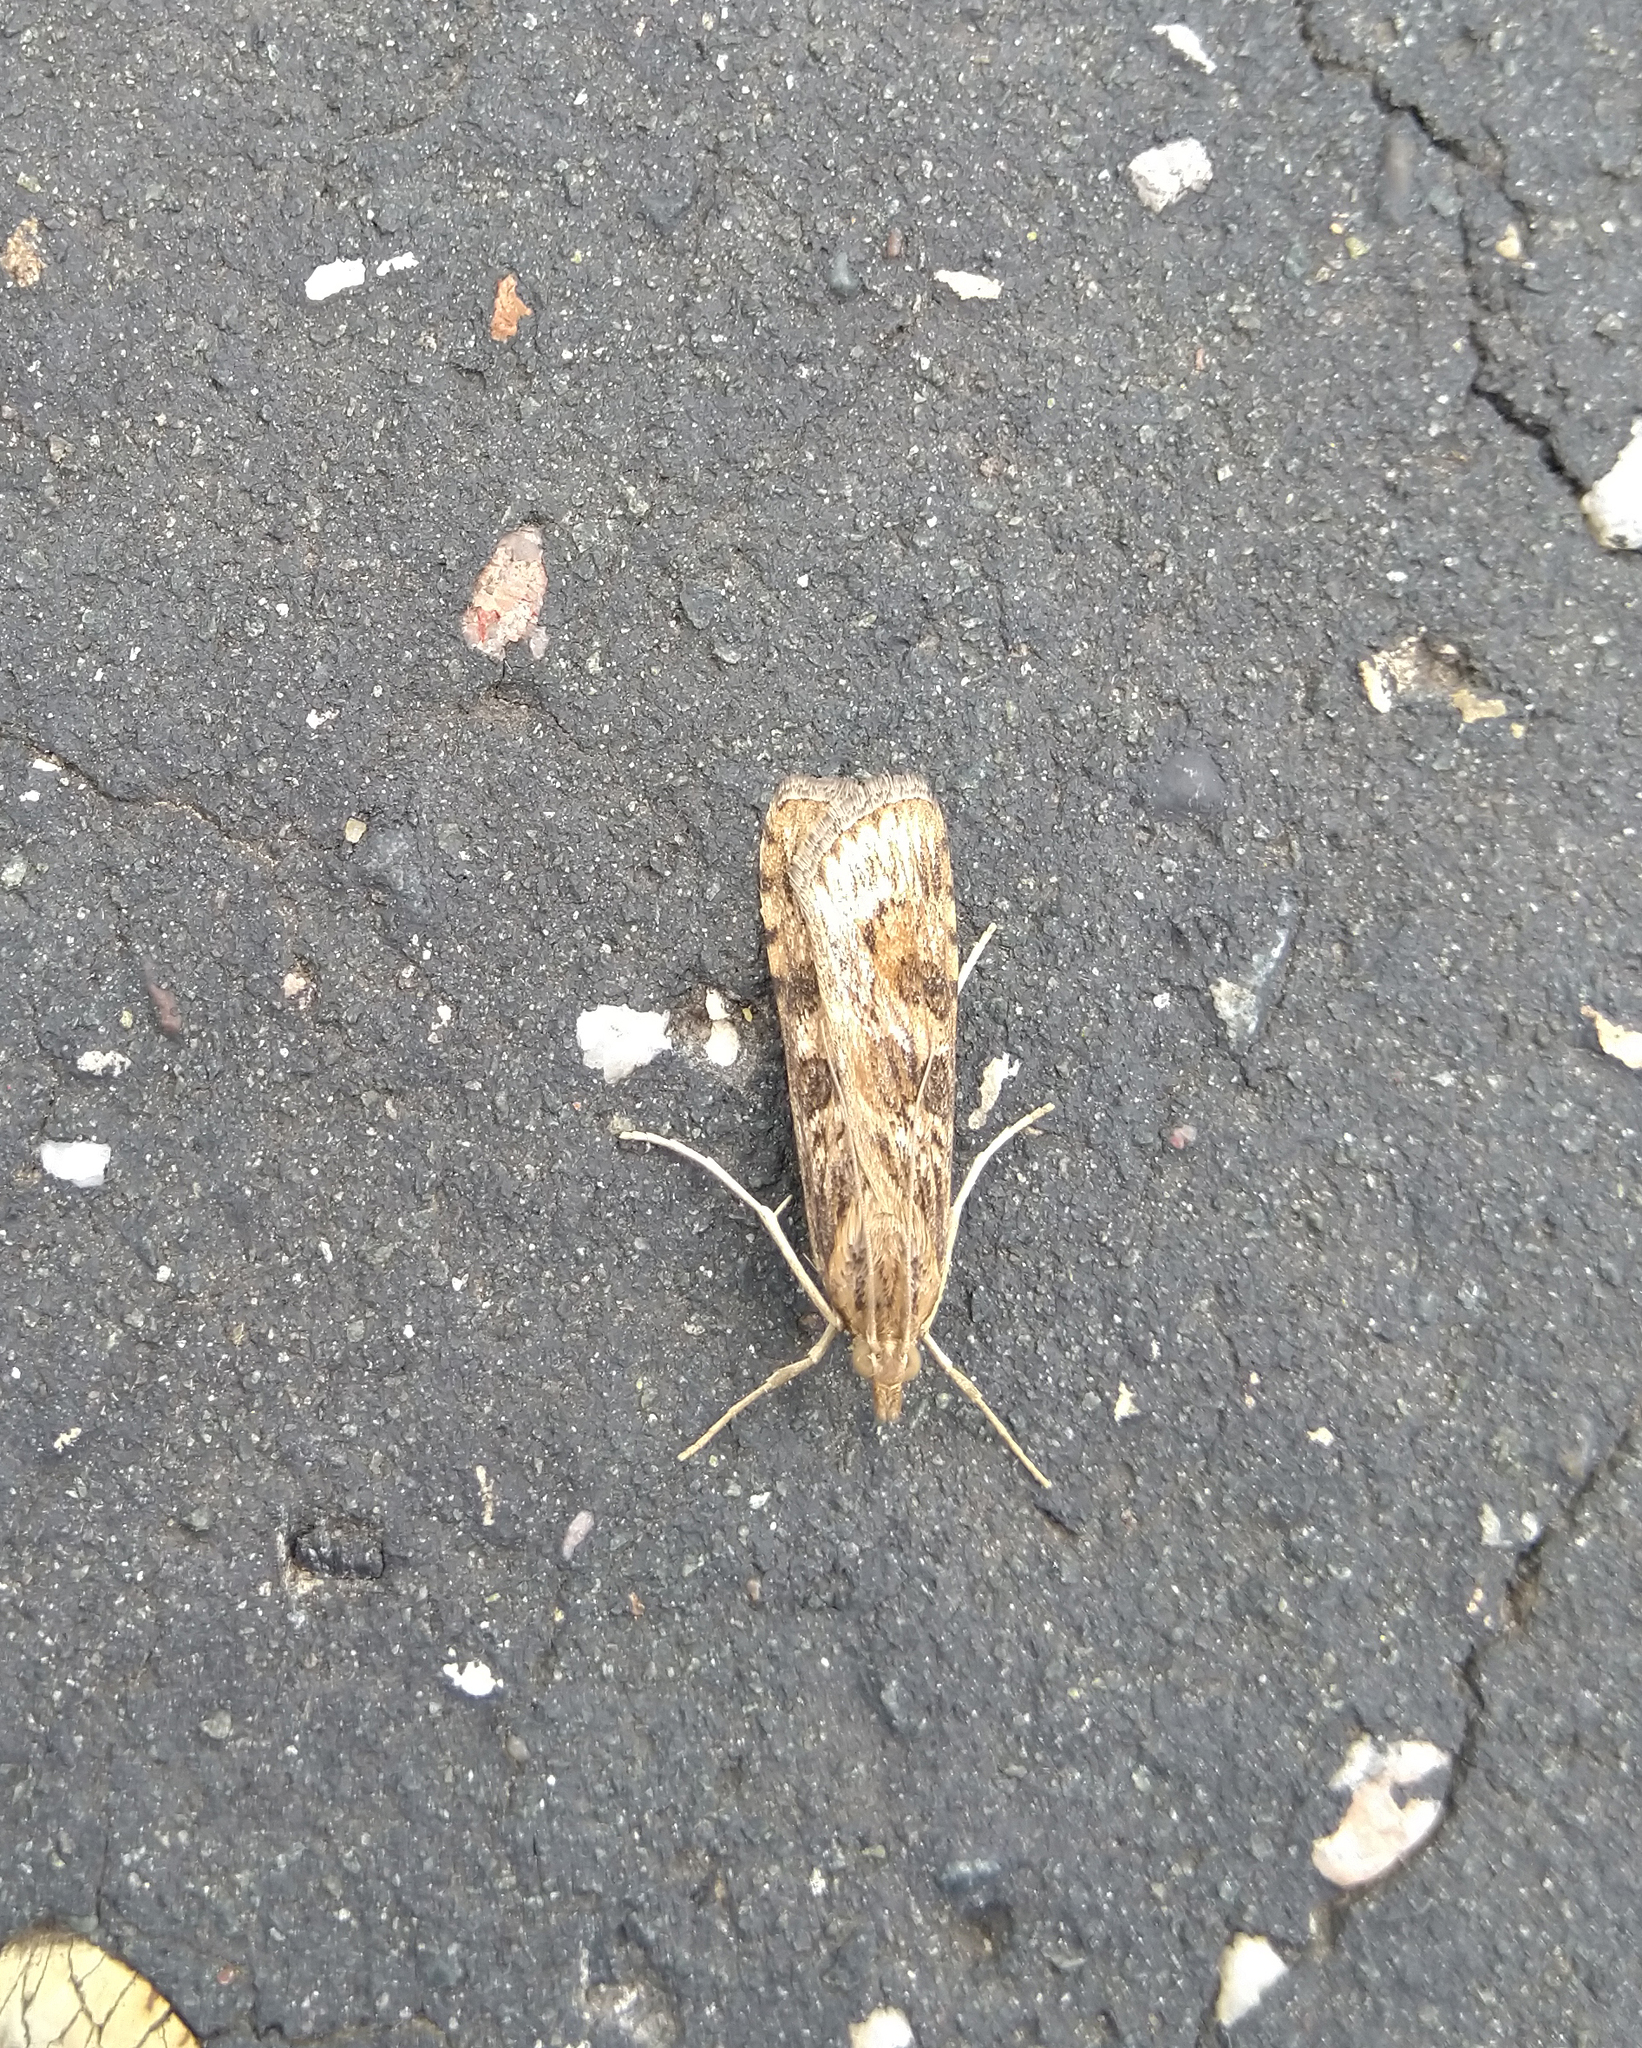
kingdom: Animalia
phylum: Arthropoda
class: Insecta
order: Lepidoptera
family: Crambidae
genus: Nomophila
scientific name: Nomophila nearctica
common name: American rush veneer
